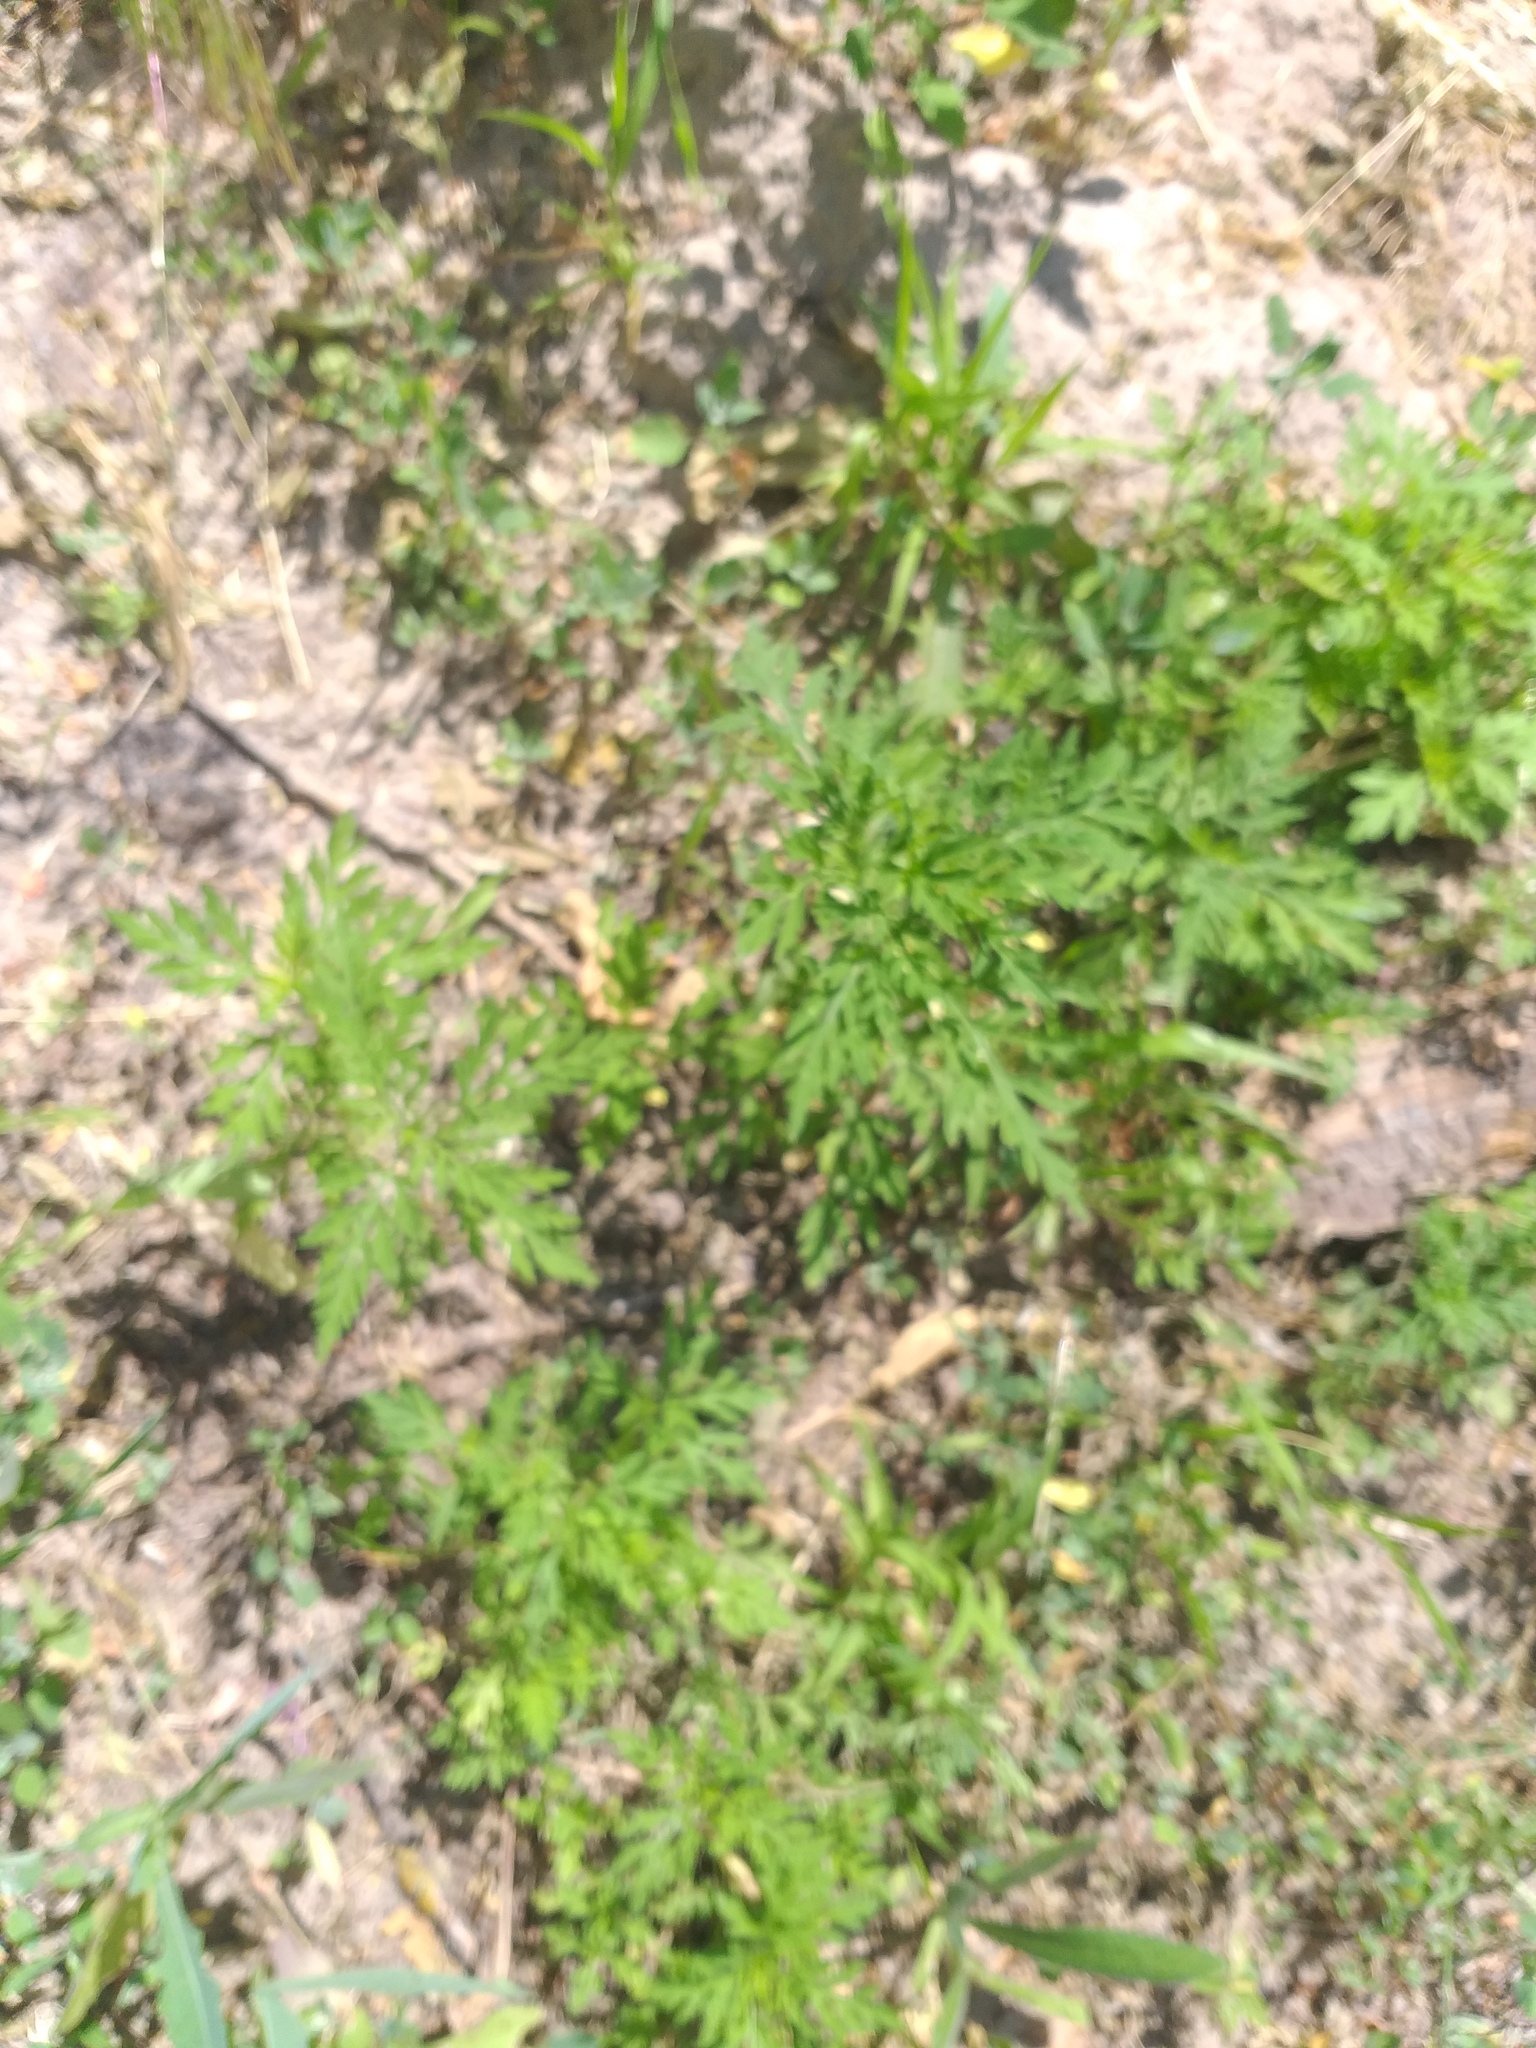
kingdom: Plantae
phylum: Tracheophyta
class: Magnoliopsida
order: Asterales
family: Asteraceae
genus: Ambrosia
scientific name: Ambrosia artemisiifolia
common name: Annual ragweed
